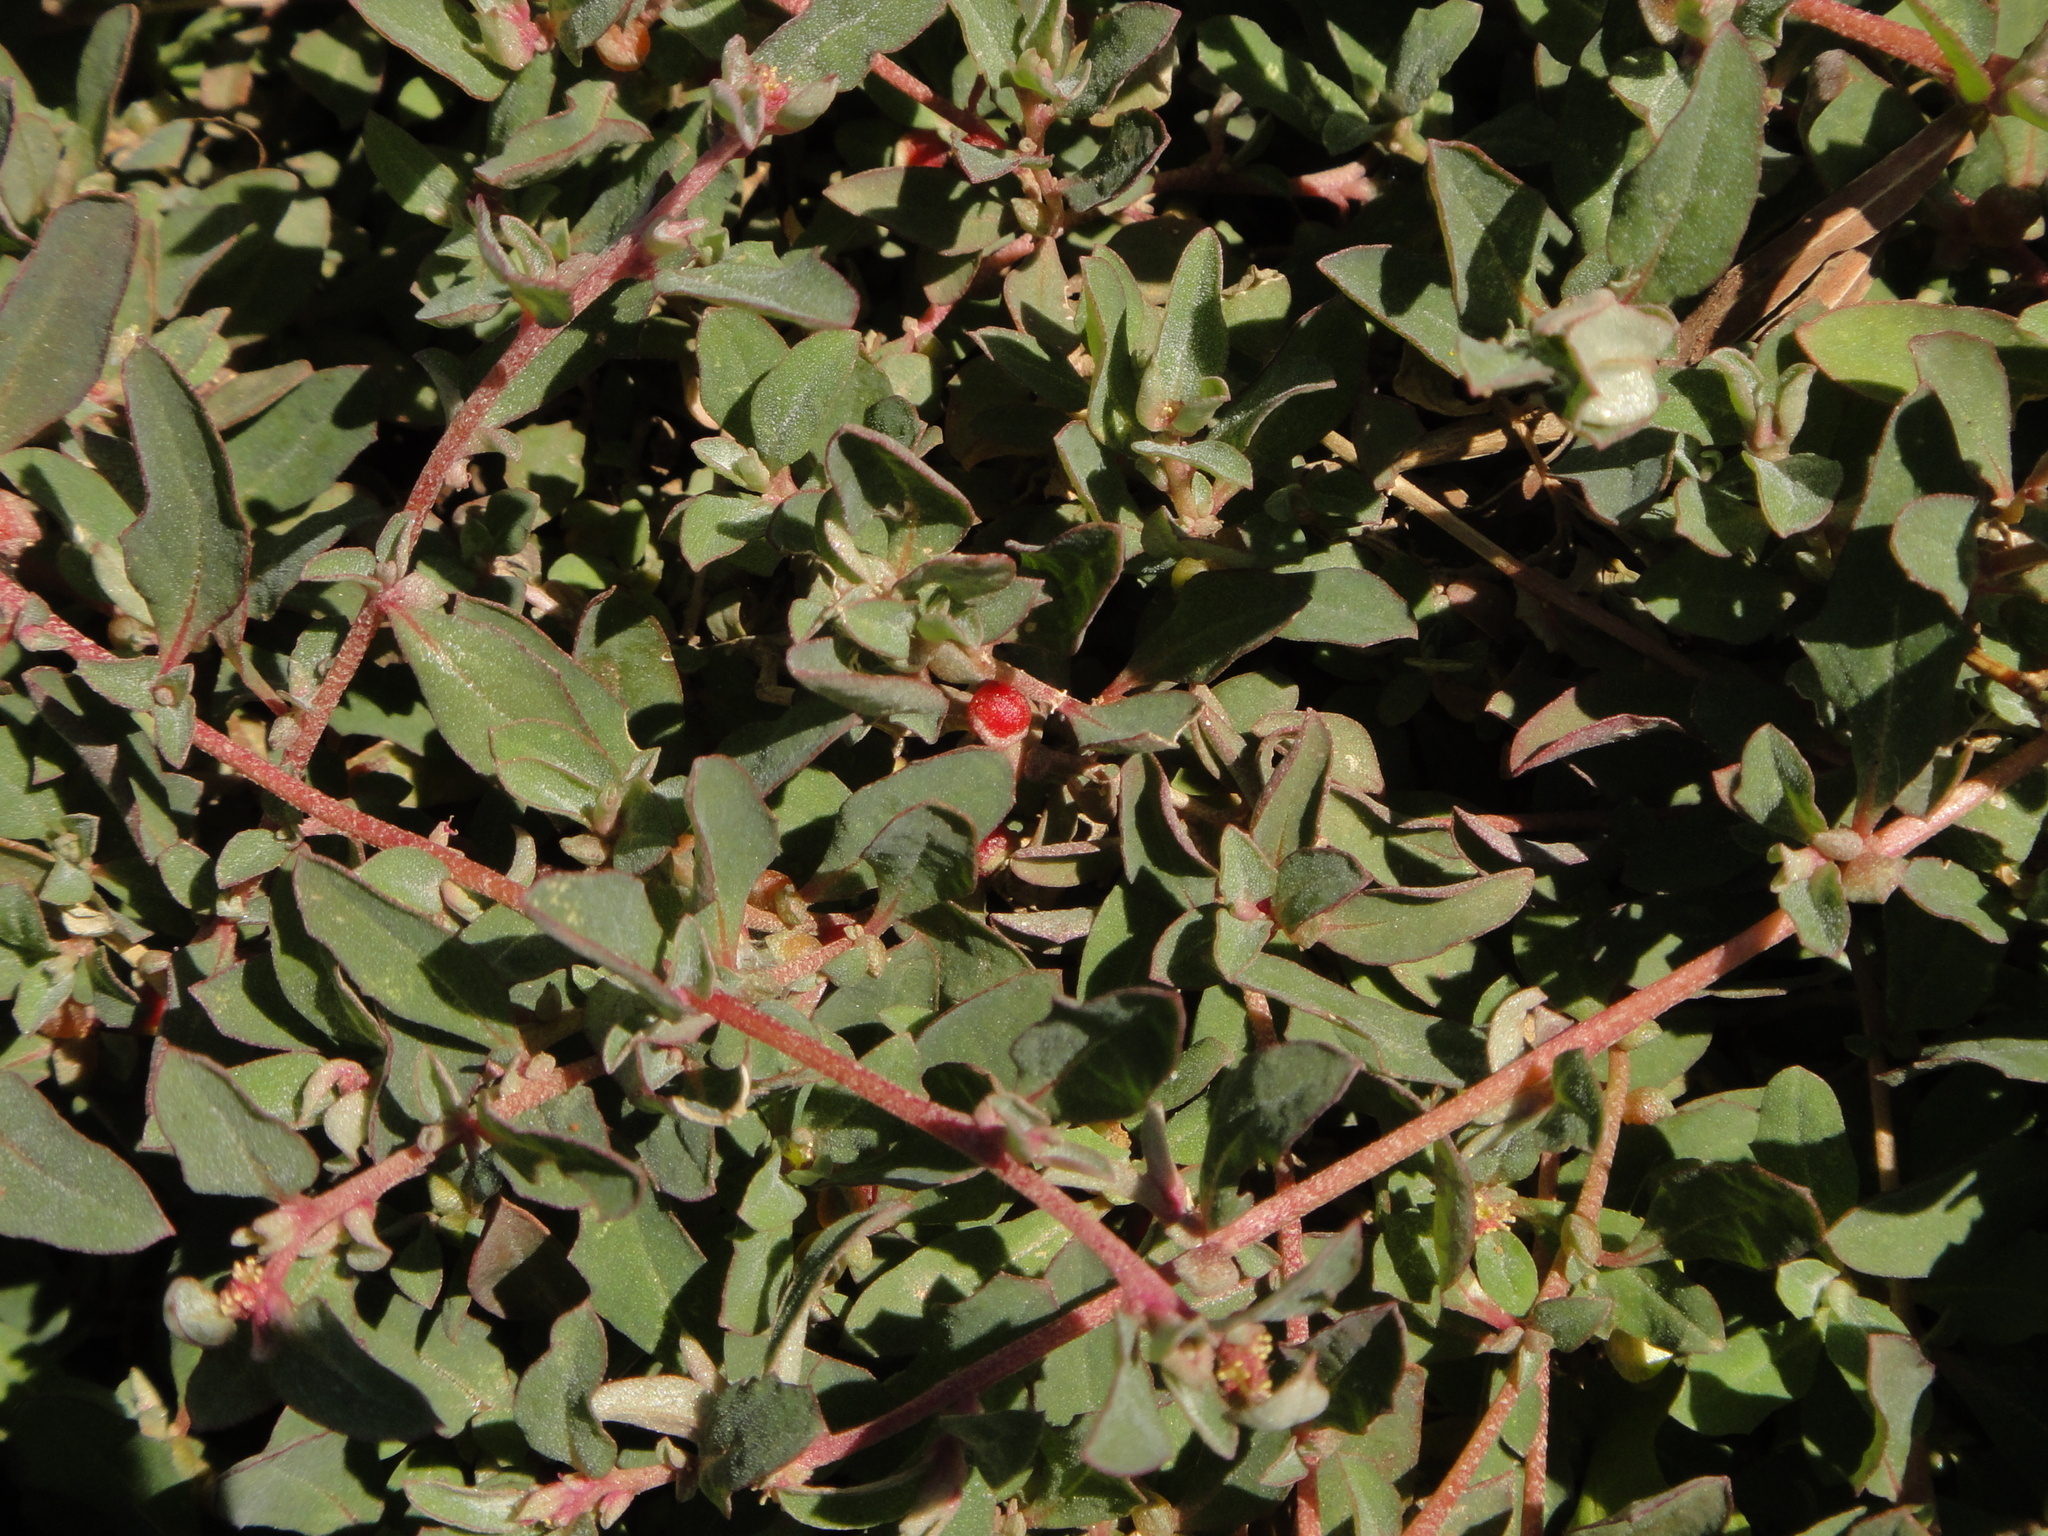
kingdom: Plantae
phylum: Tracheophyta
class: Magnoliopsida
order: Caryophyllales
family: Amaranthaceae
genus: Atriplex
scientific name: Atriplex semibaccata
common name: Australian saltbush
